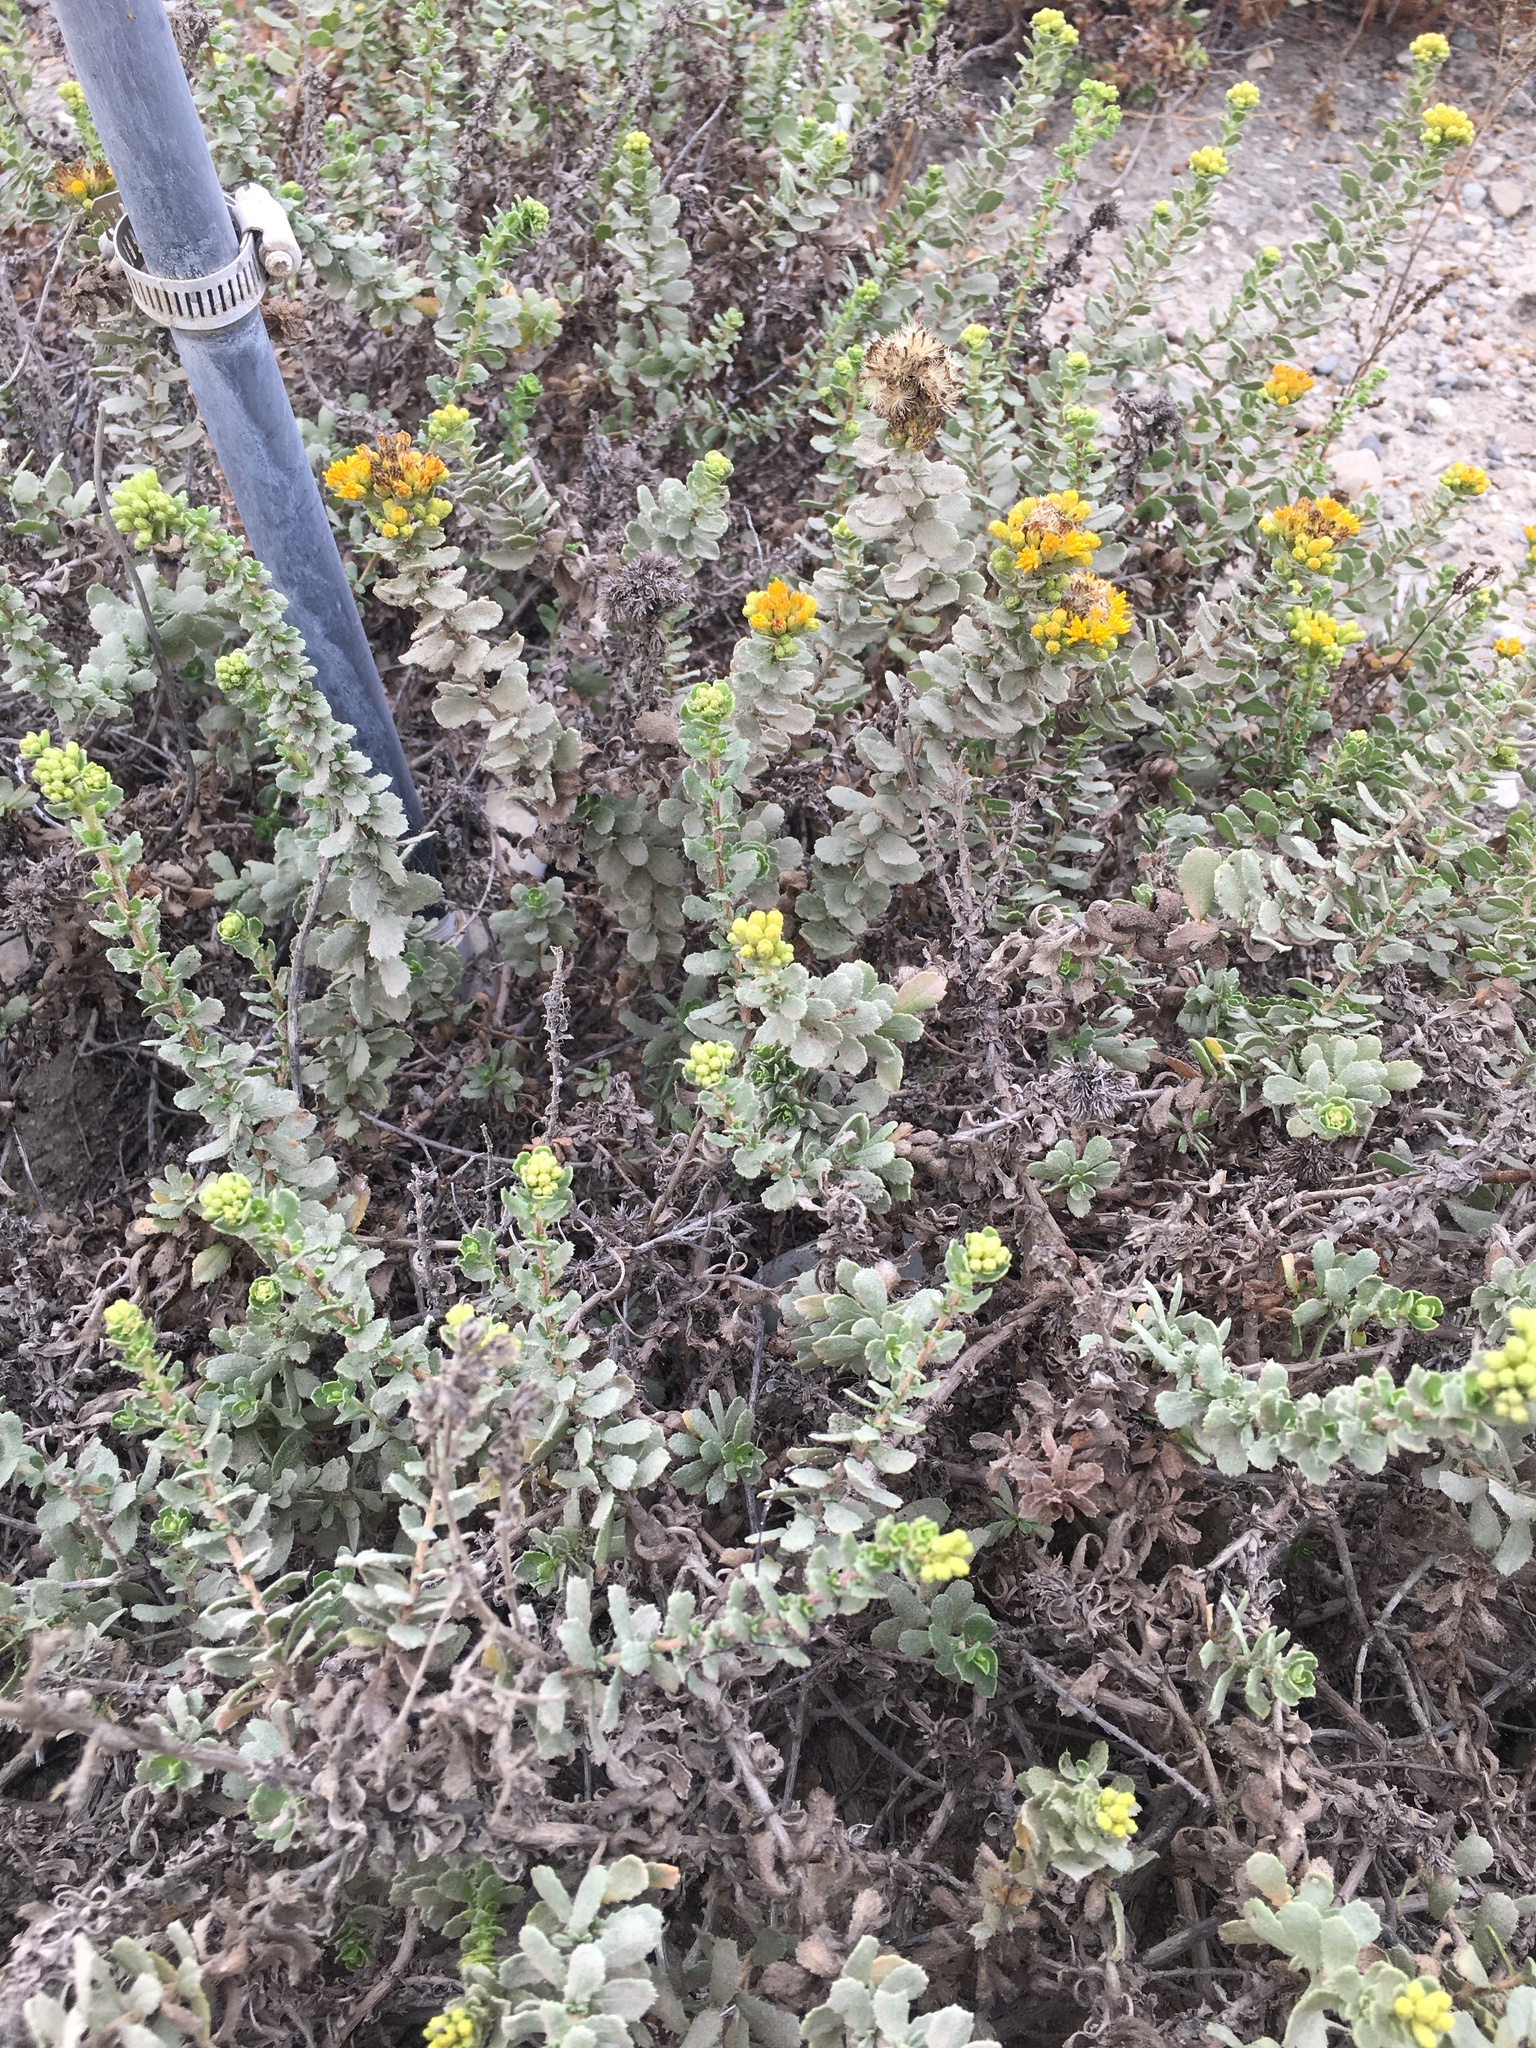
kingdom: Plantae
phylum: Tracheophyta
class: Magnoliopsida
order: Asterales
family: Asteraceae
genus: Isocoma
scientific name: Isocoma menziesii
